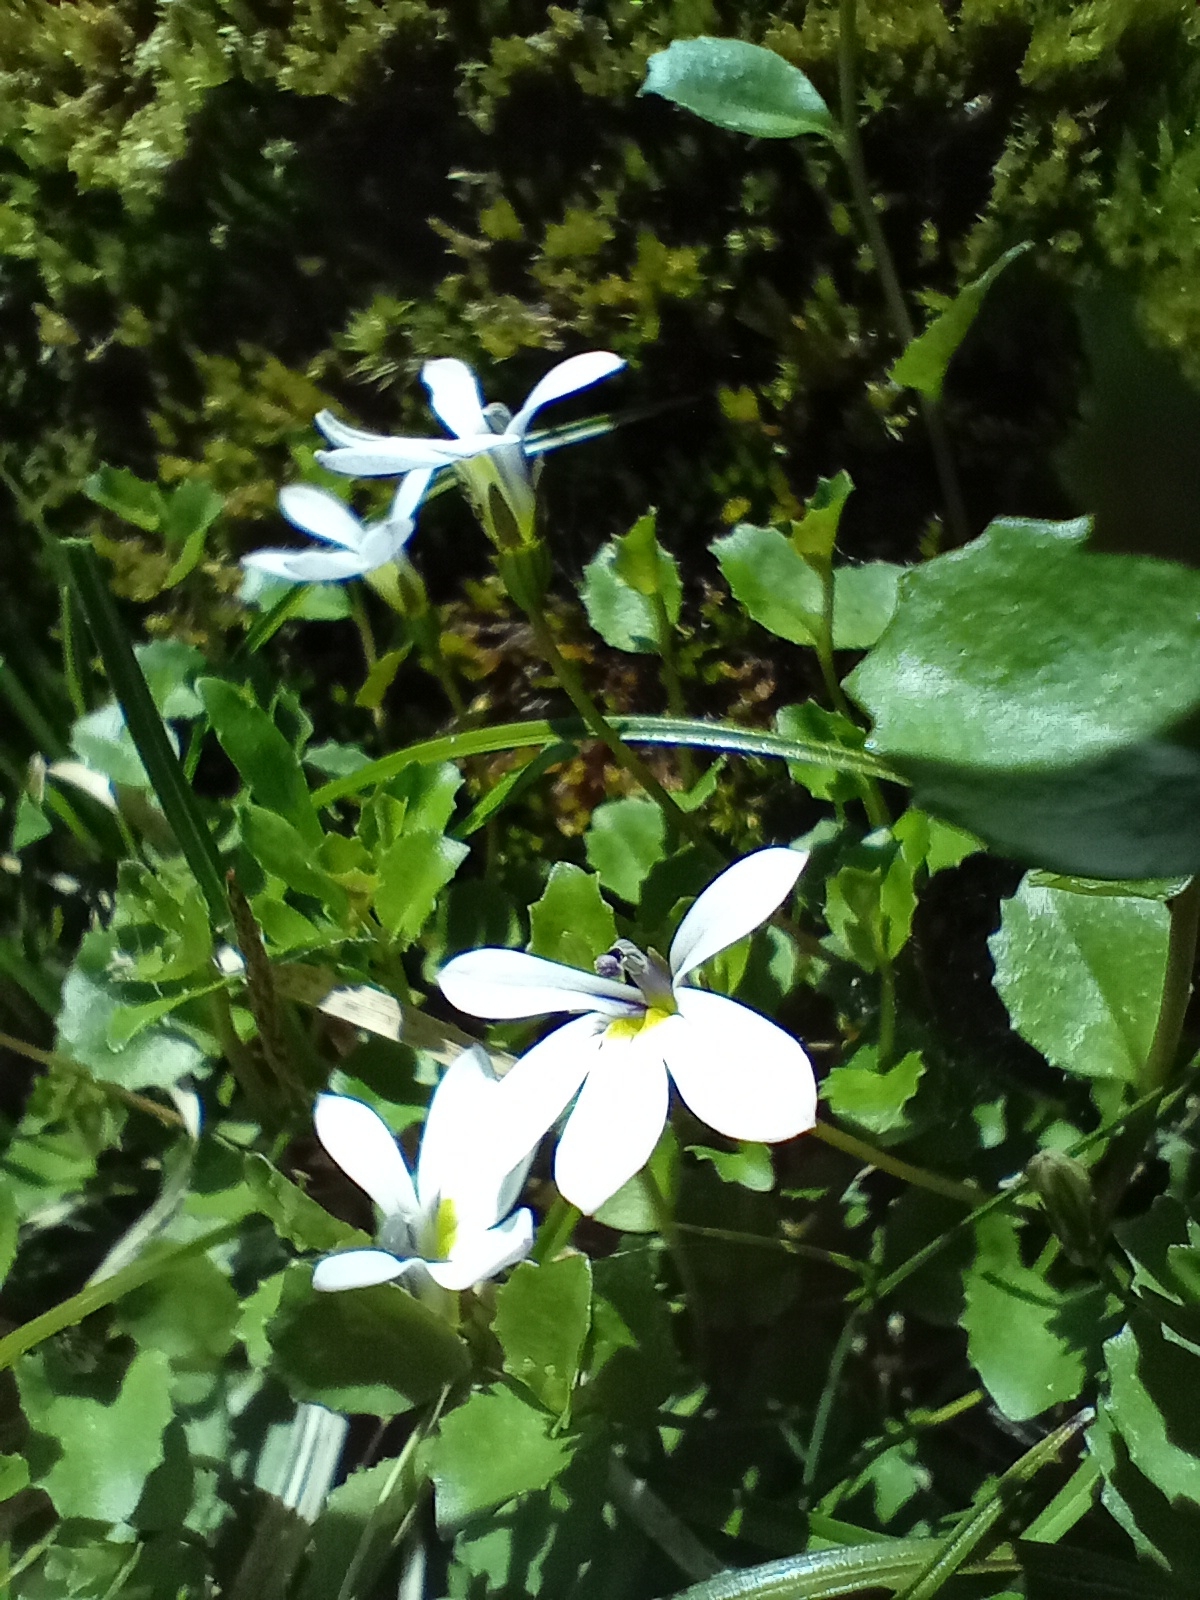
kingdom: Plantae
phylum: Tracheophyta
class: Magnoliopsida
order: Asterales
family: Campanulaceae
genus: Lobelia
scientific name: Lobelia angulata
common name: Lawn lobelia
